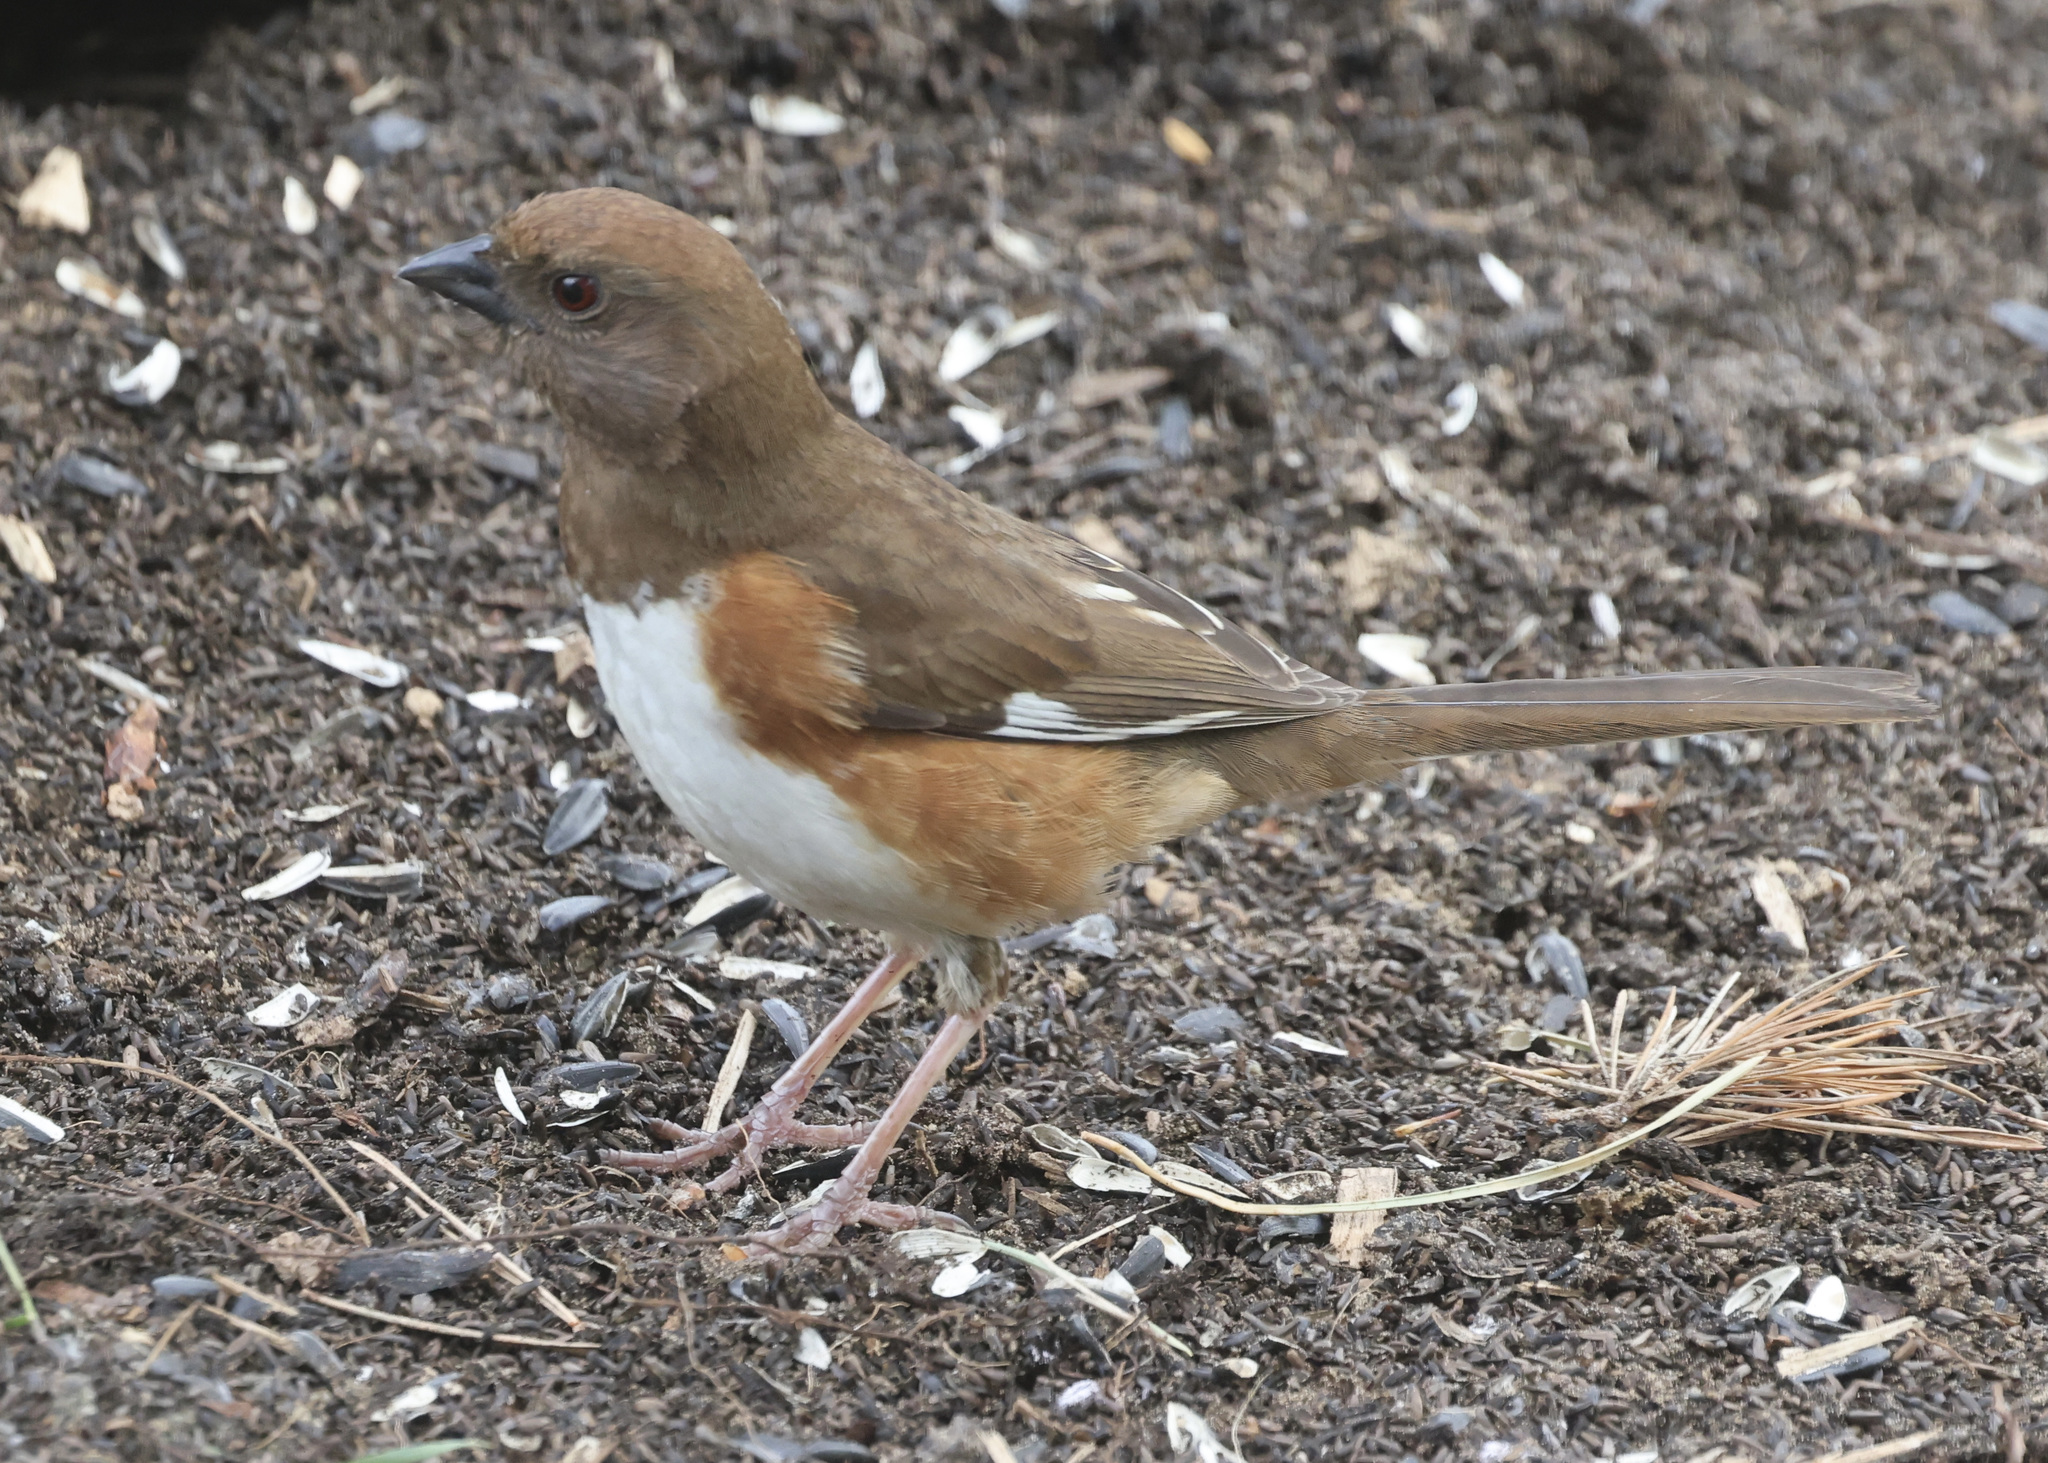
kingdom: Animalia
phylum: Chordata
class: Aves
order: Passeriformes
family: Passerellidae
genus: Pipilo
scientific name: Pipilo erythrophthalmus
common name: Eastern towhee
